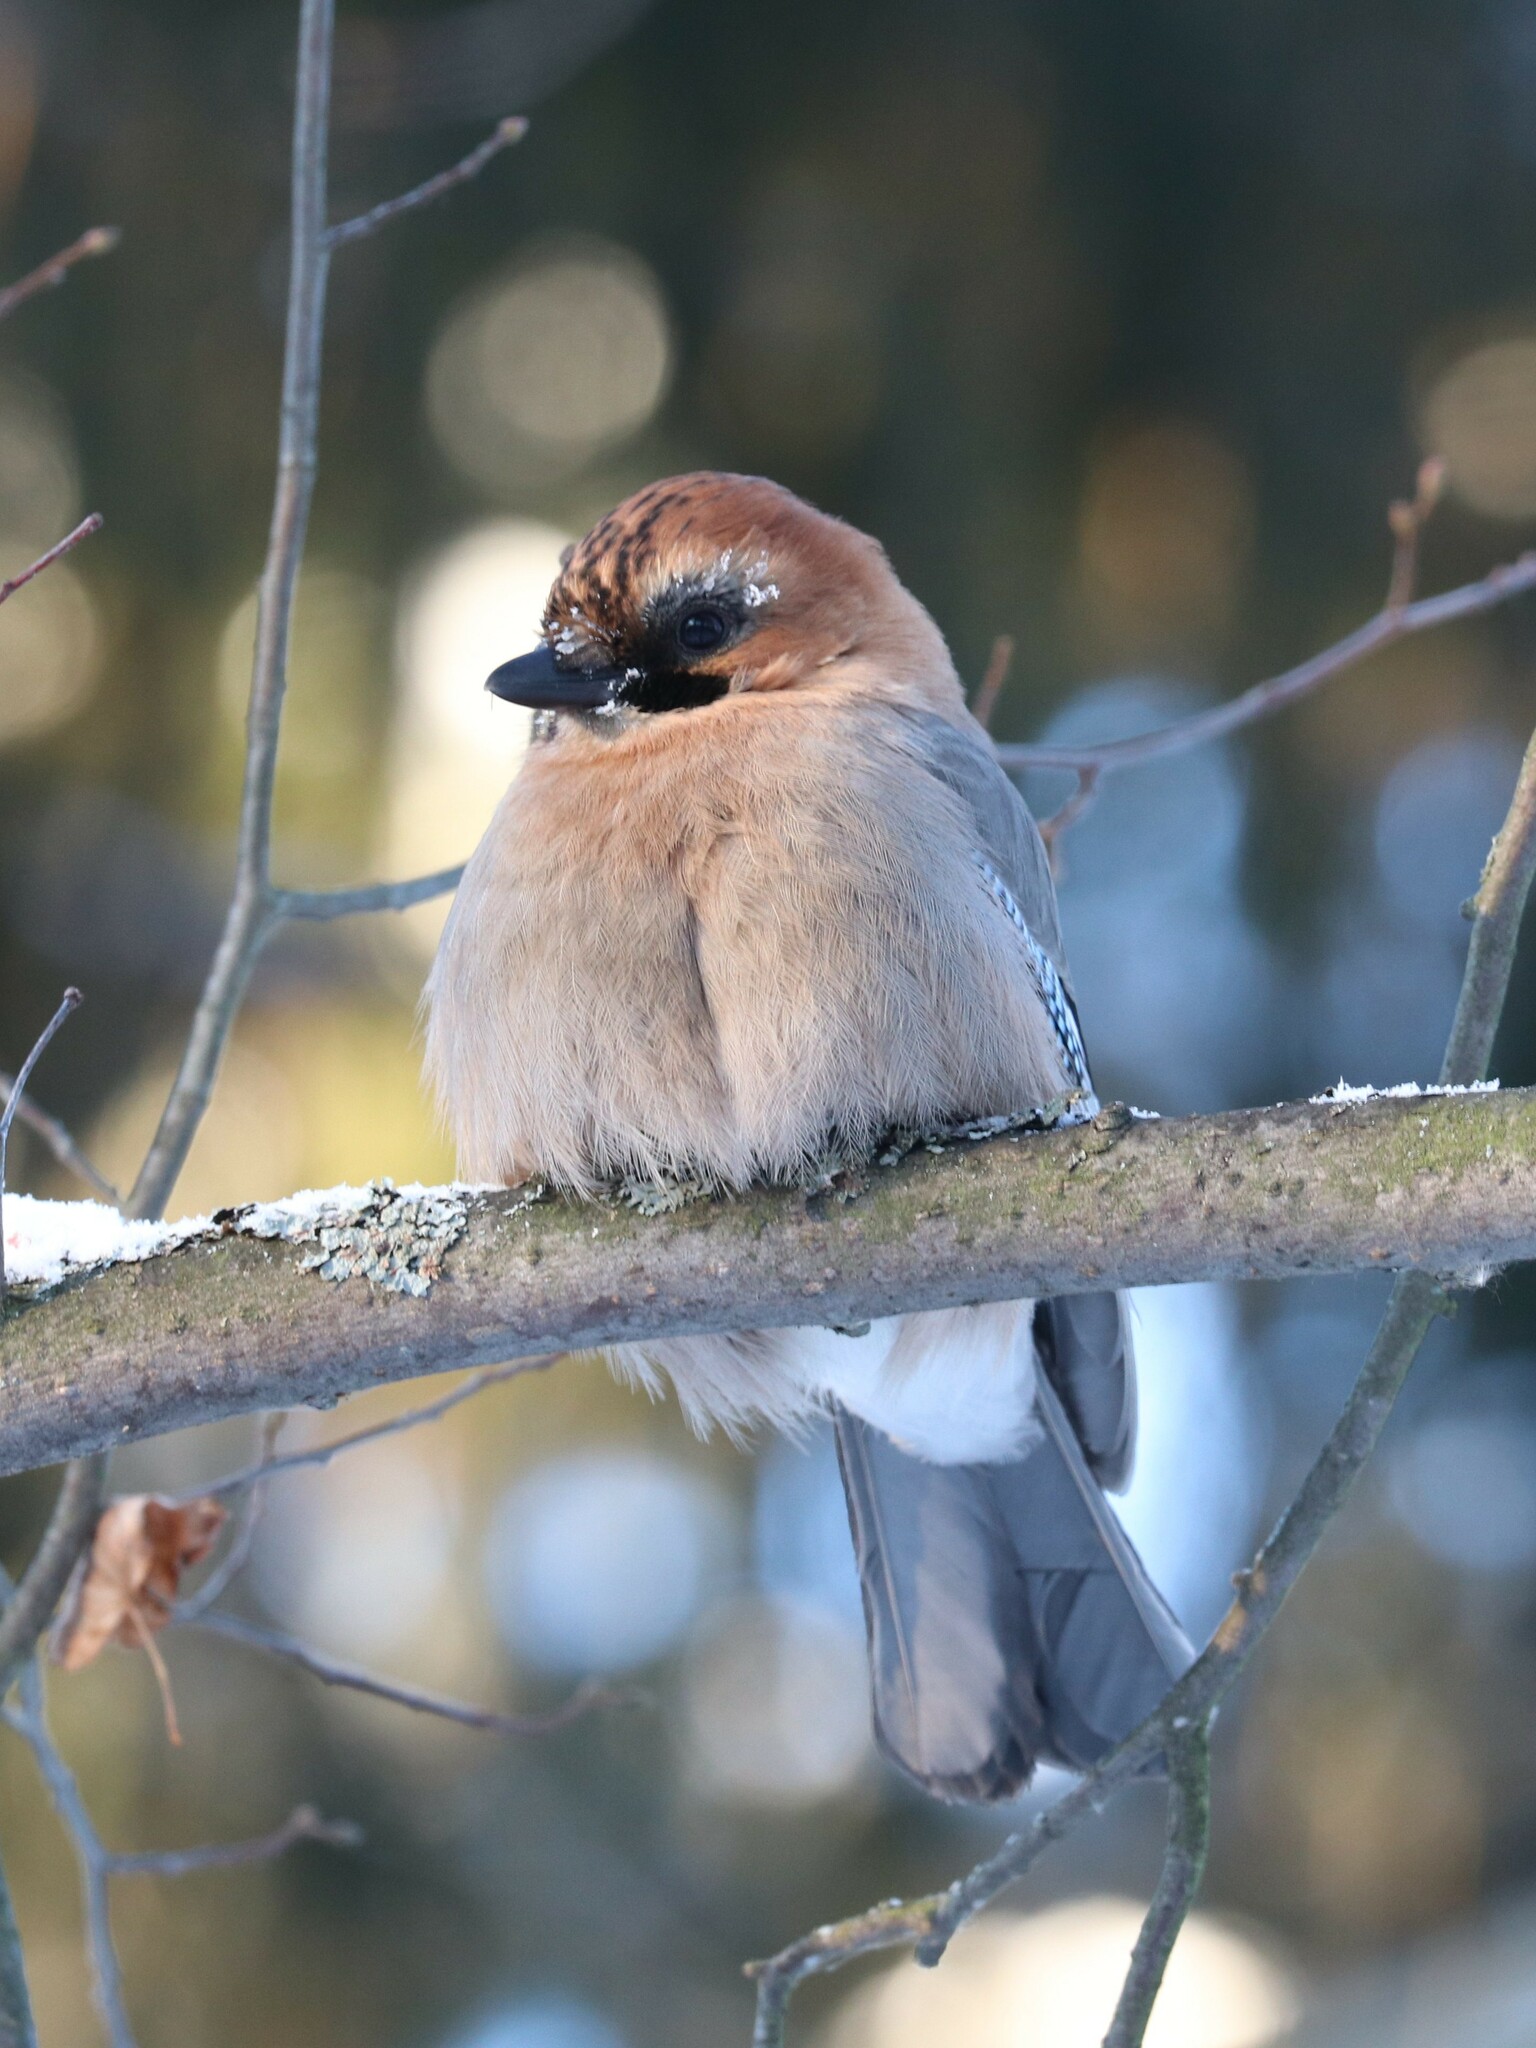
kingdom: Animalia
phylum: Chordata
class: Aves
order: Passeriformes
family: Corvidae
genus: Garrulus
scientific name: Garrulus glandarius
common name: Eurasian jay
